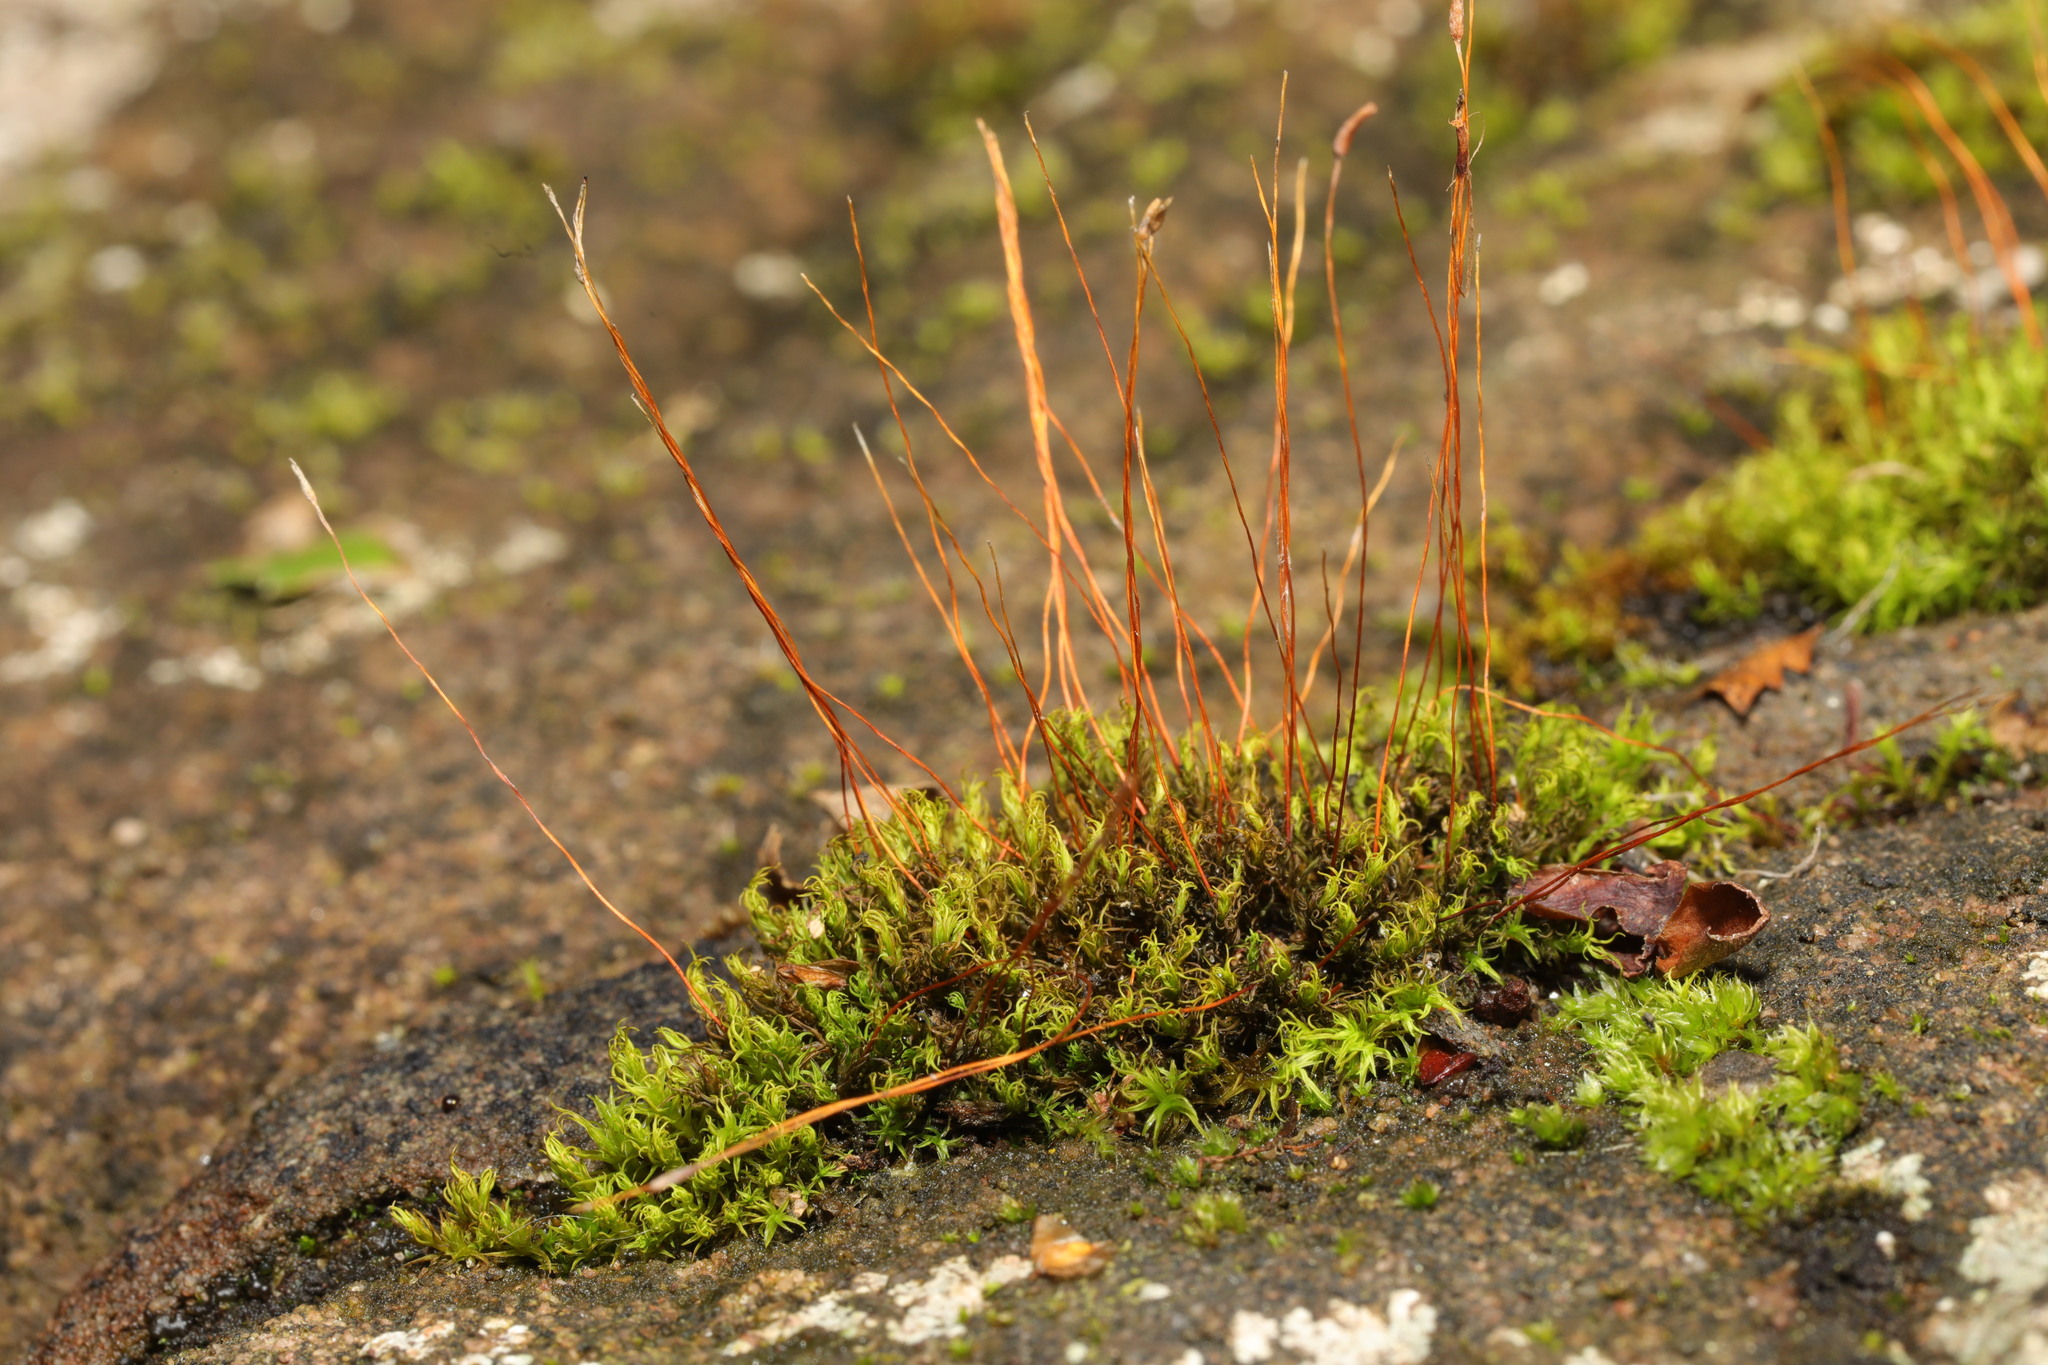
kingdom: Plantae
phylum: Bryophyta
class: Bryopsida
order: Pottiales
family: Pottiaceae
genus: Tortula
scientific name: Tortula muralis
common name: Wall screw-moss
